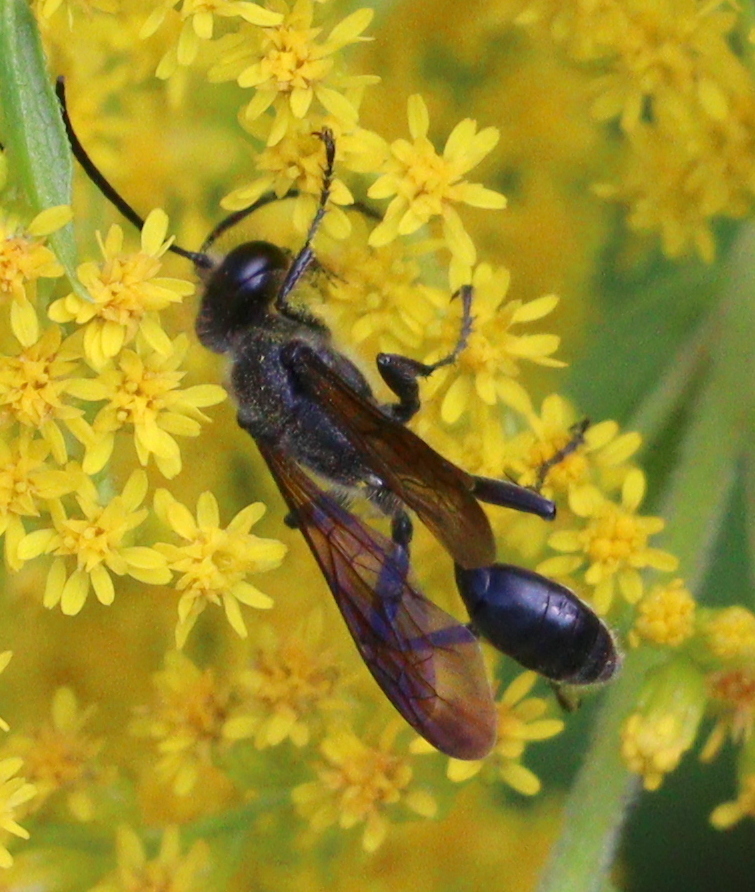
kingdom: Animalia
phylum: Arthropoda
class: Insecta
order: Hymenoptera
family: Sphecidae
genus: Isodontia
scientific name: Isodontia mexicana
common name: Mud dauber
